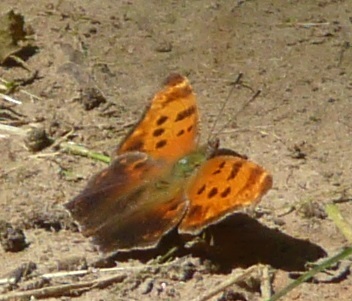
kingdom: Animalia
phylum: Arthropoda
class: Insecta
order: Lepidoptera
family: Nymphalidae
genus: Polygonia
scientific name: Polygonia comma
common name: Eastern comma
